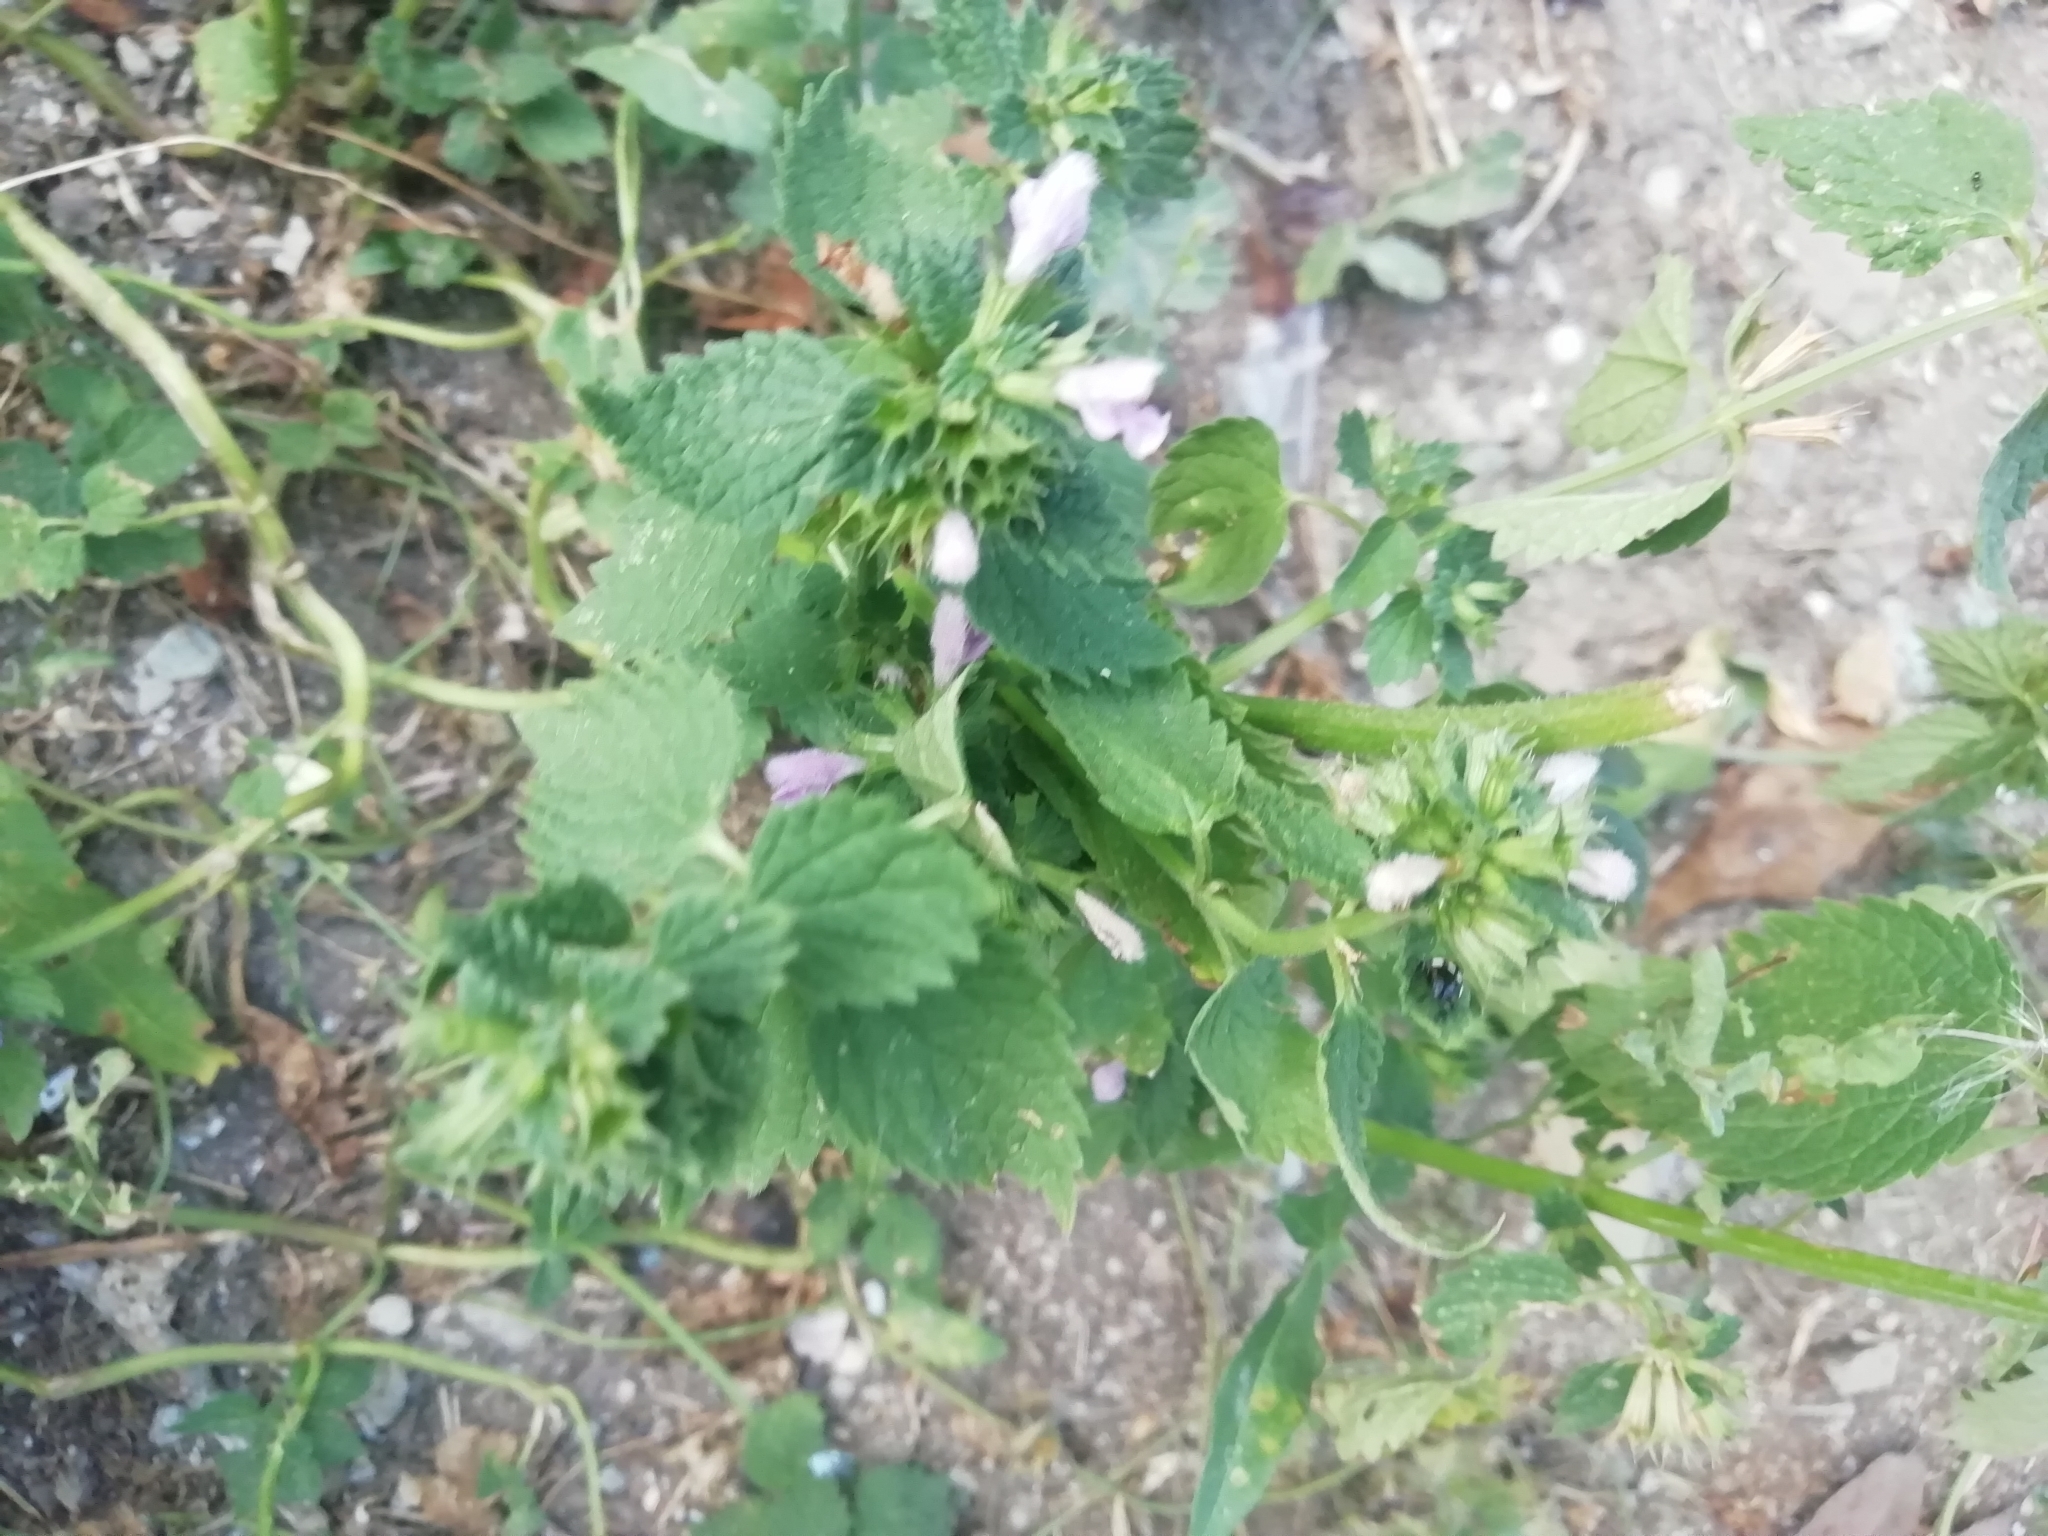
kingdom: Plantae
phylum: Tracheophyta
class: Magnoliopsida
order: Lamiales
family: Lamiaceae
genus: Ballota
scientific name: Ballota nigra
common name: Black horehound
